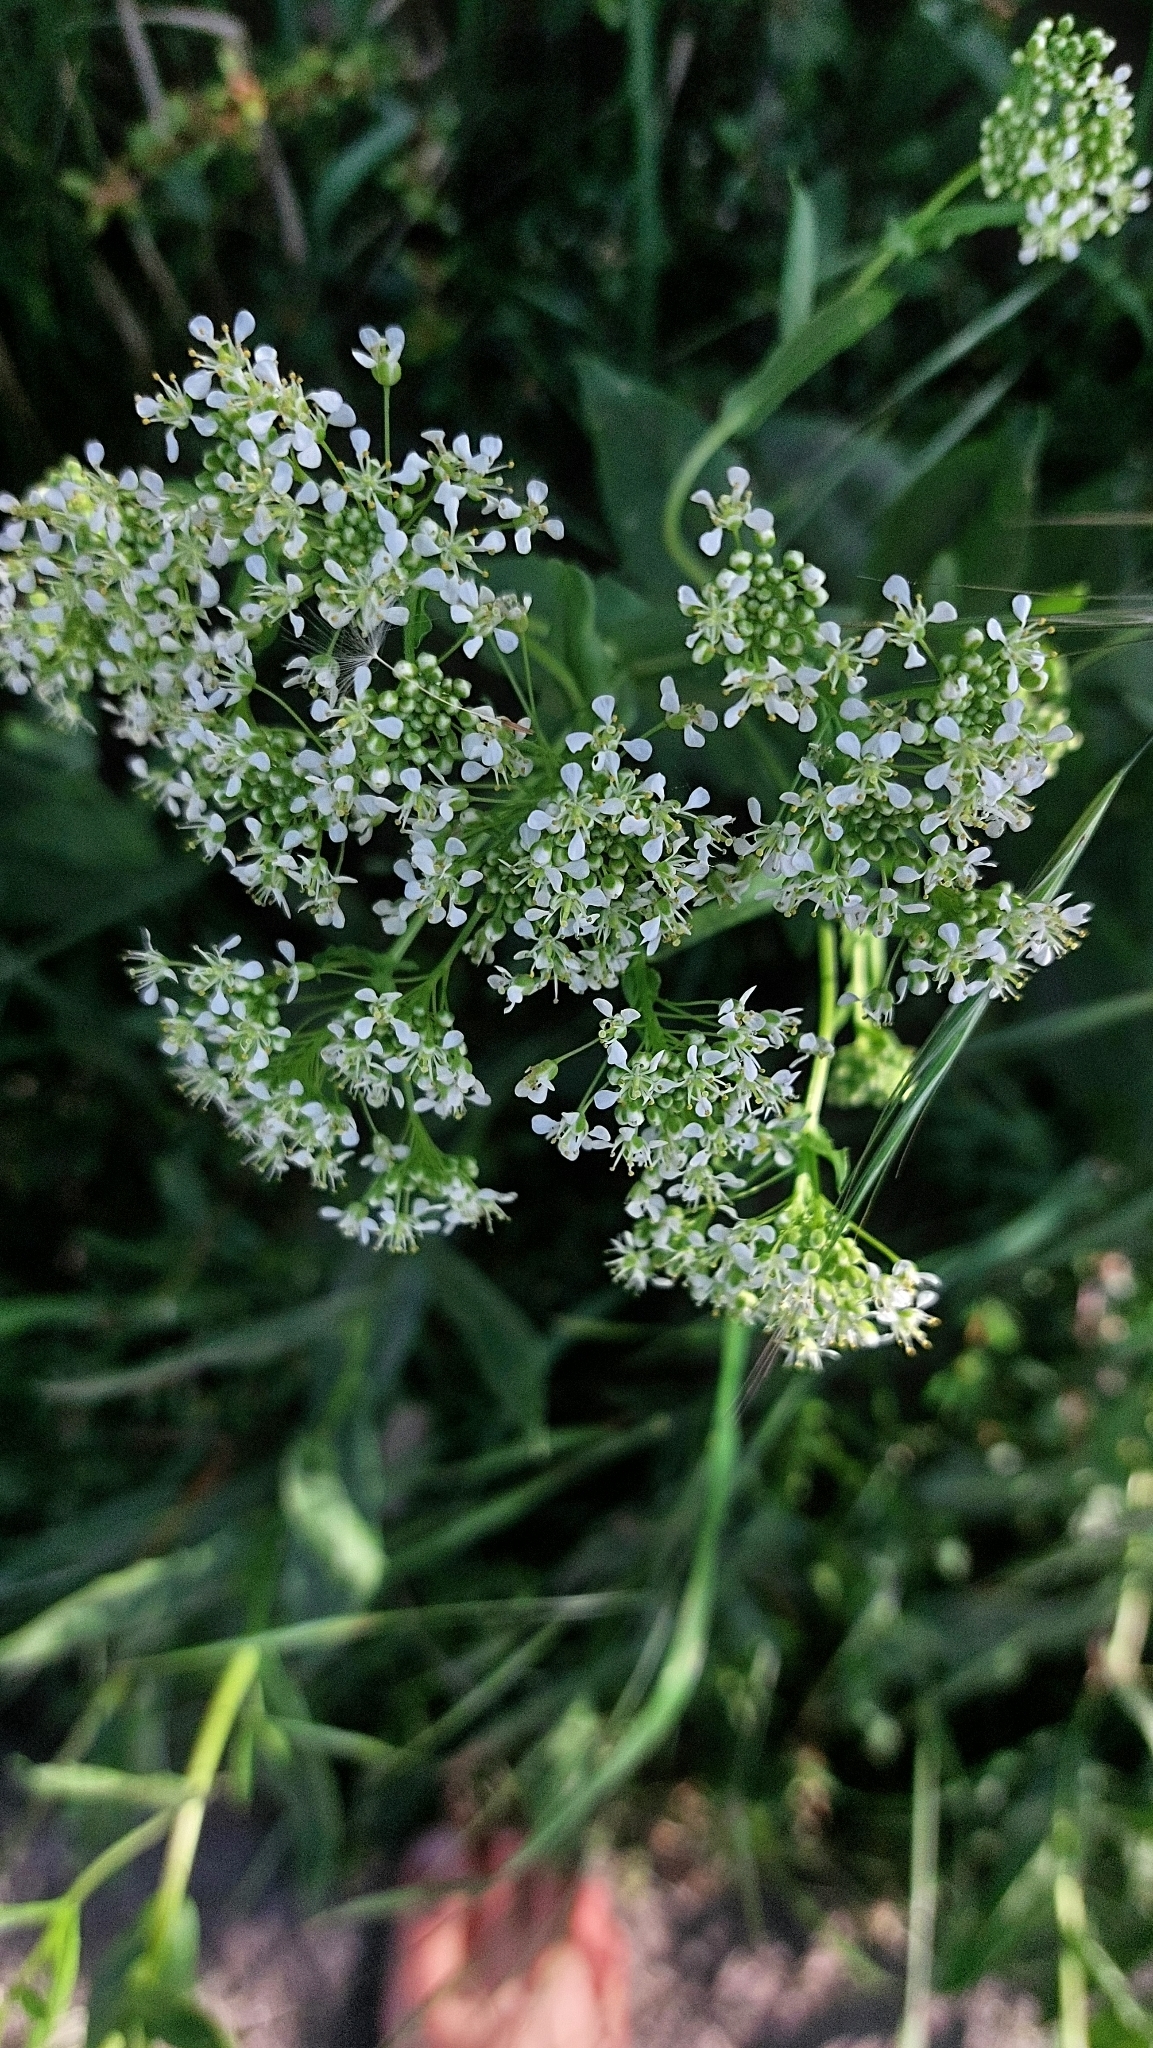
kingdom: Plantae
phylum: Tracheophyta
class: Magnoliopsida
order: Brassicales
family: Brassicaceae
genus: Lepidium
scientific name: Lepidium draba
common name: Hoary cress
